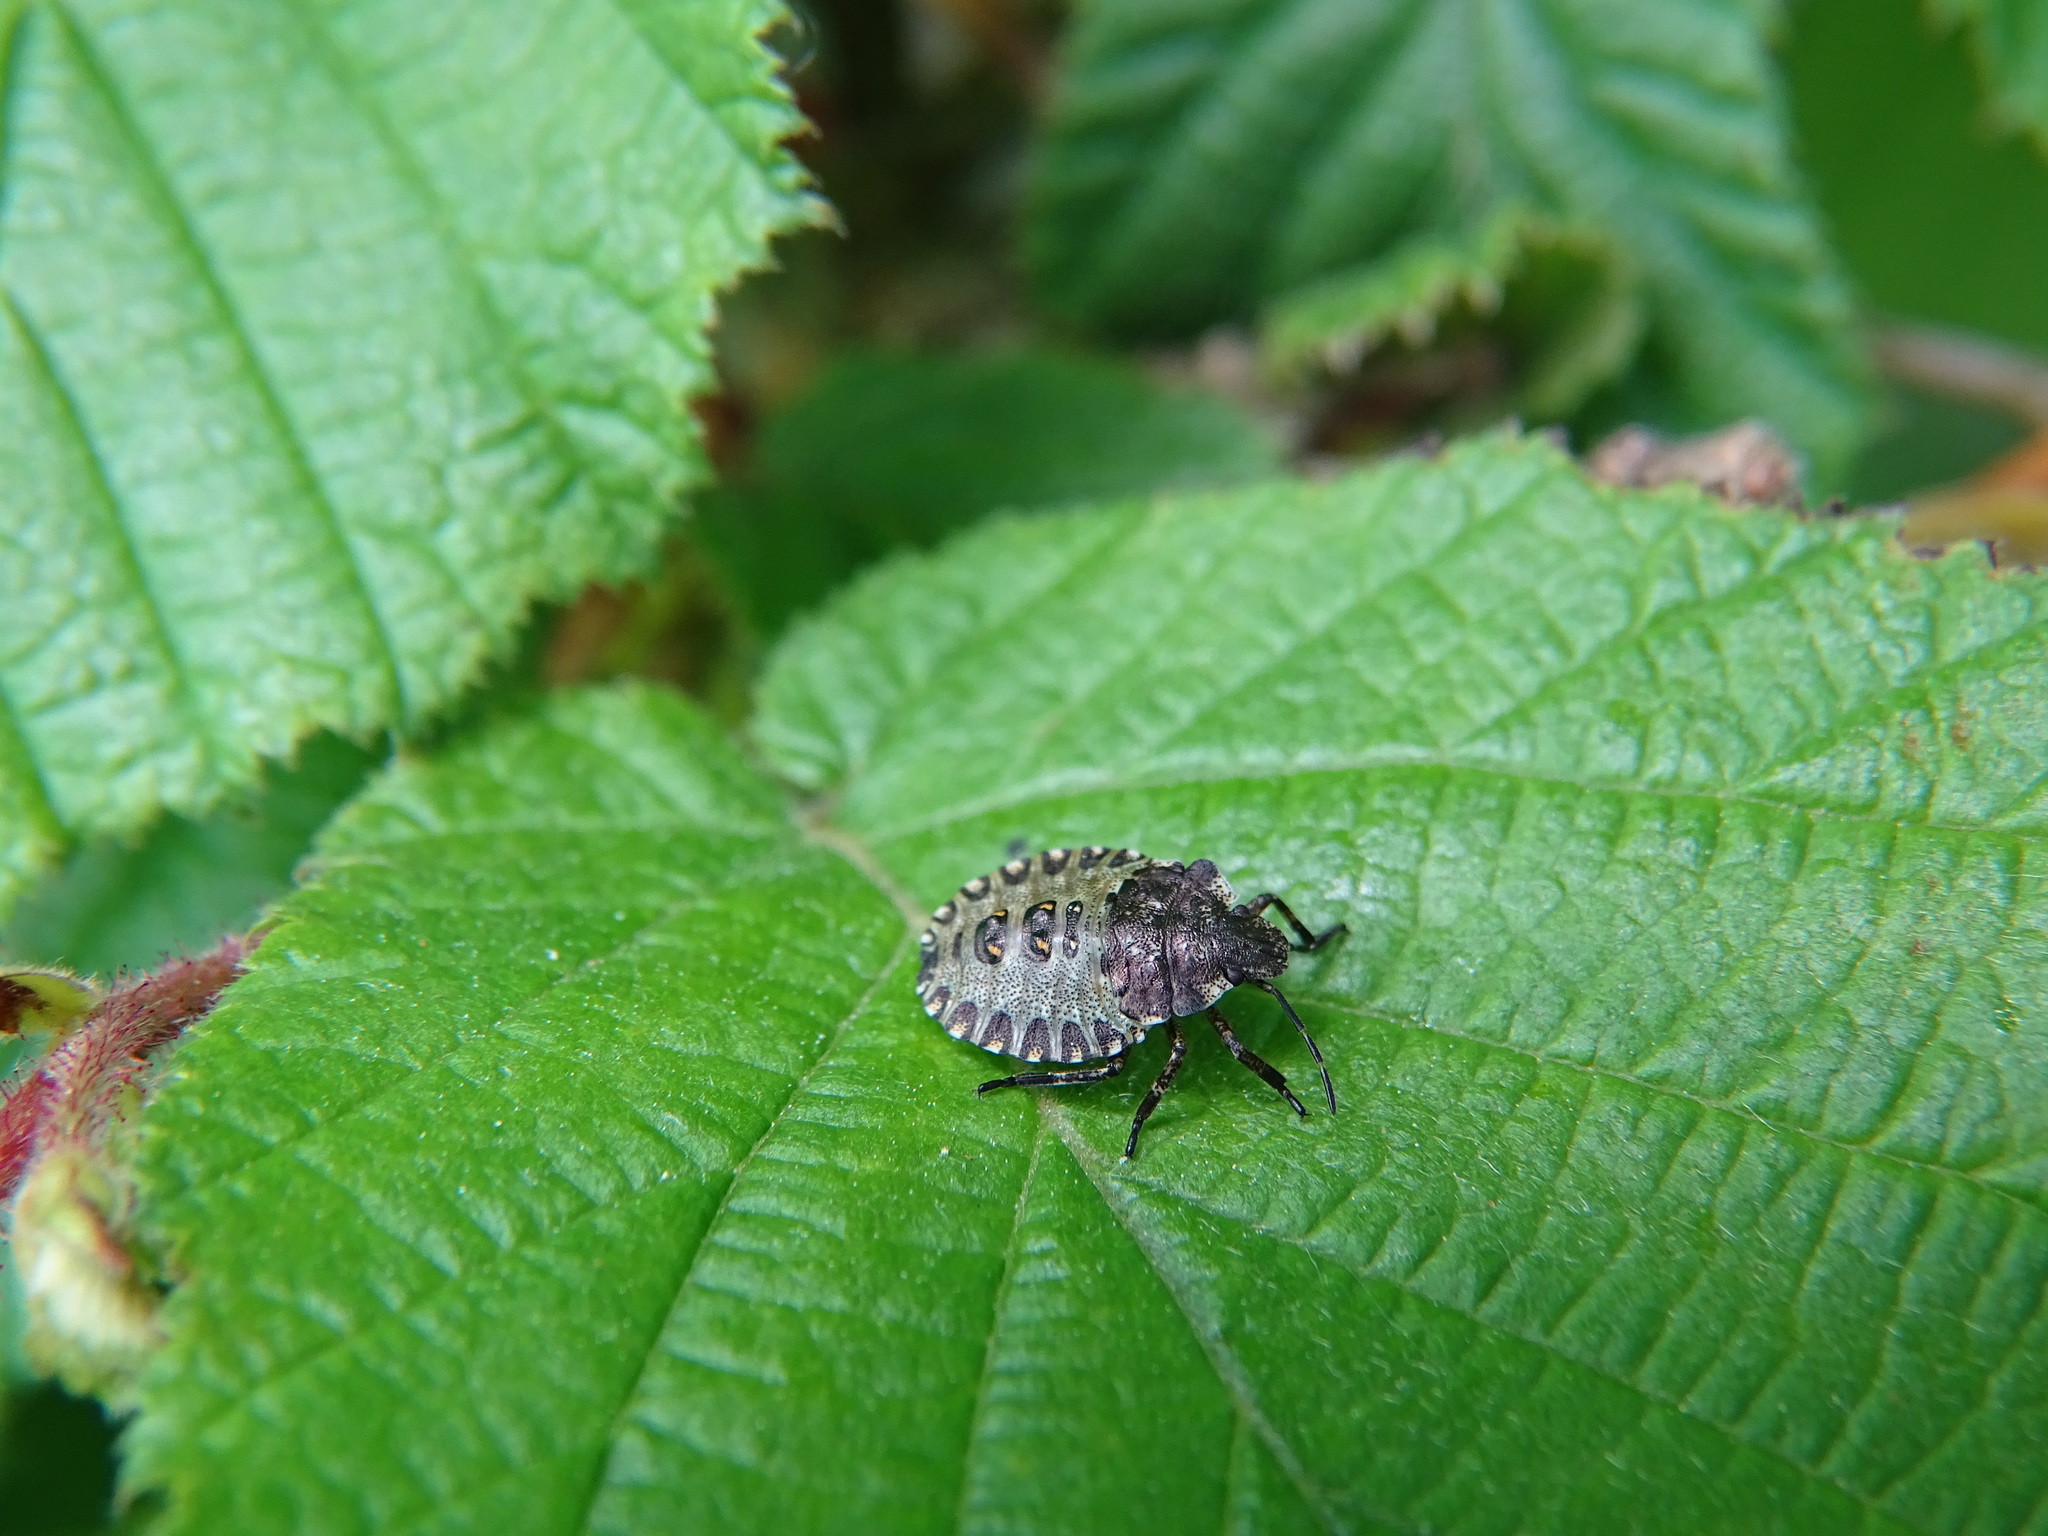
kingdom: Animalia
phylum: Arthropoda
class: Insecta
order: Hemiptera
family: Pentatomidae
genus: Pentatoma
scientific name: Pentatoma rufipes
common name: Forest bug
